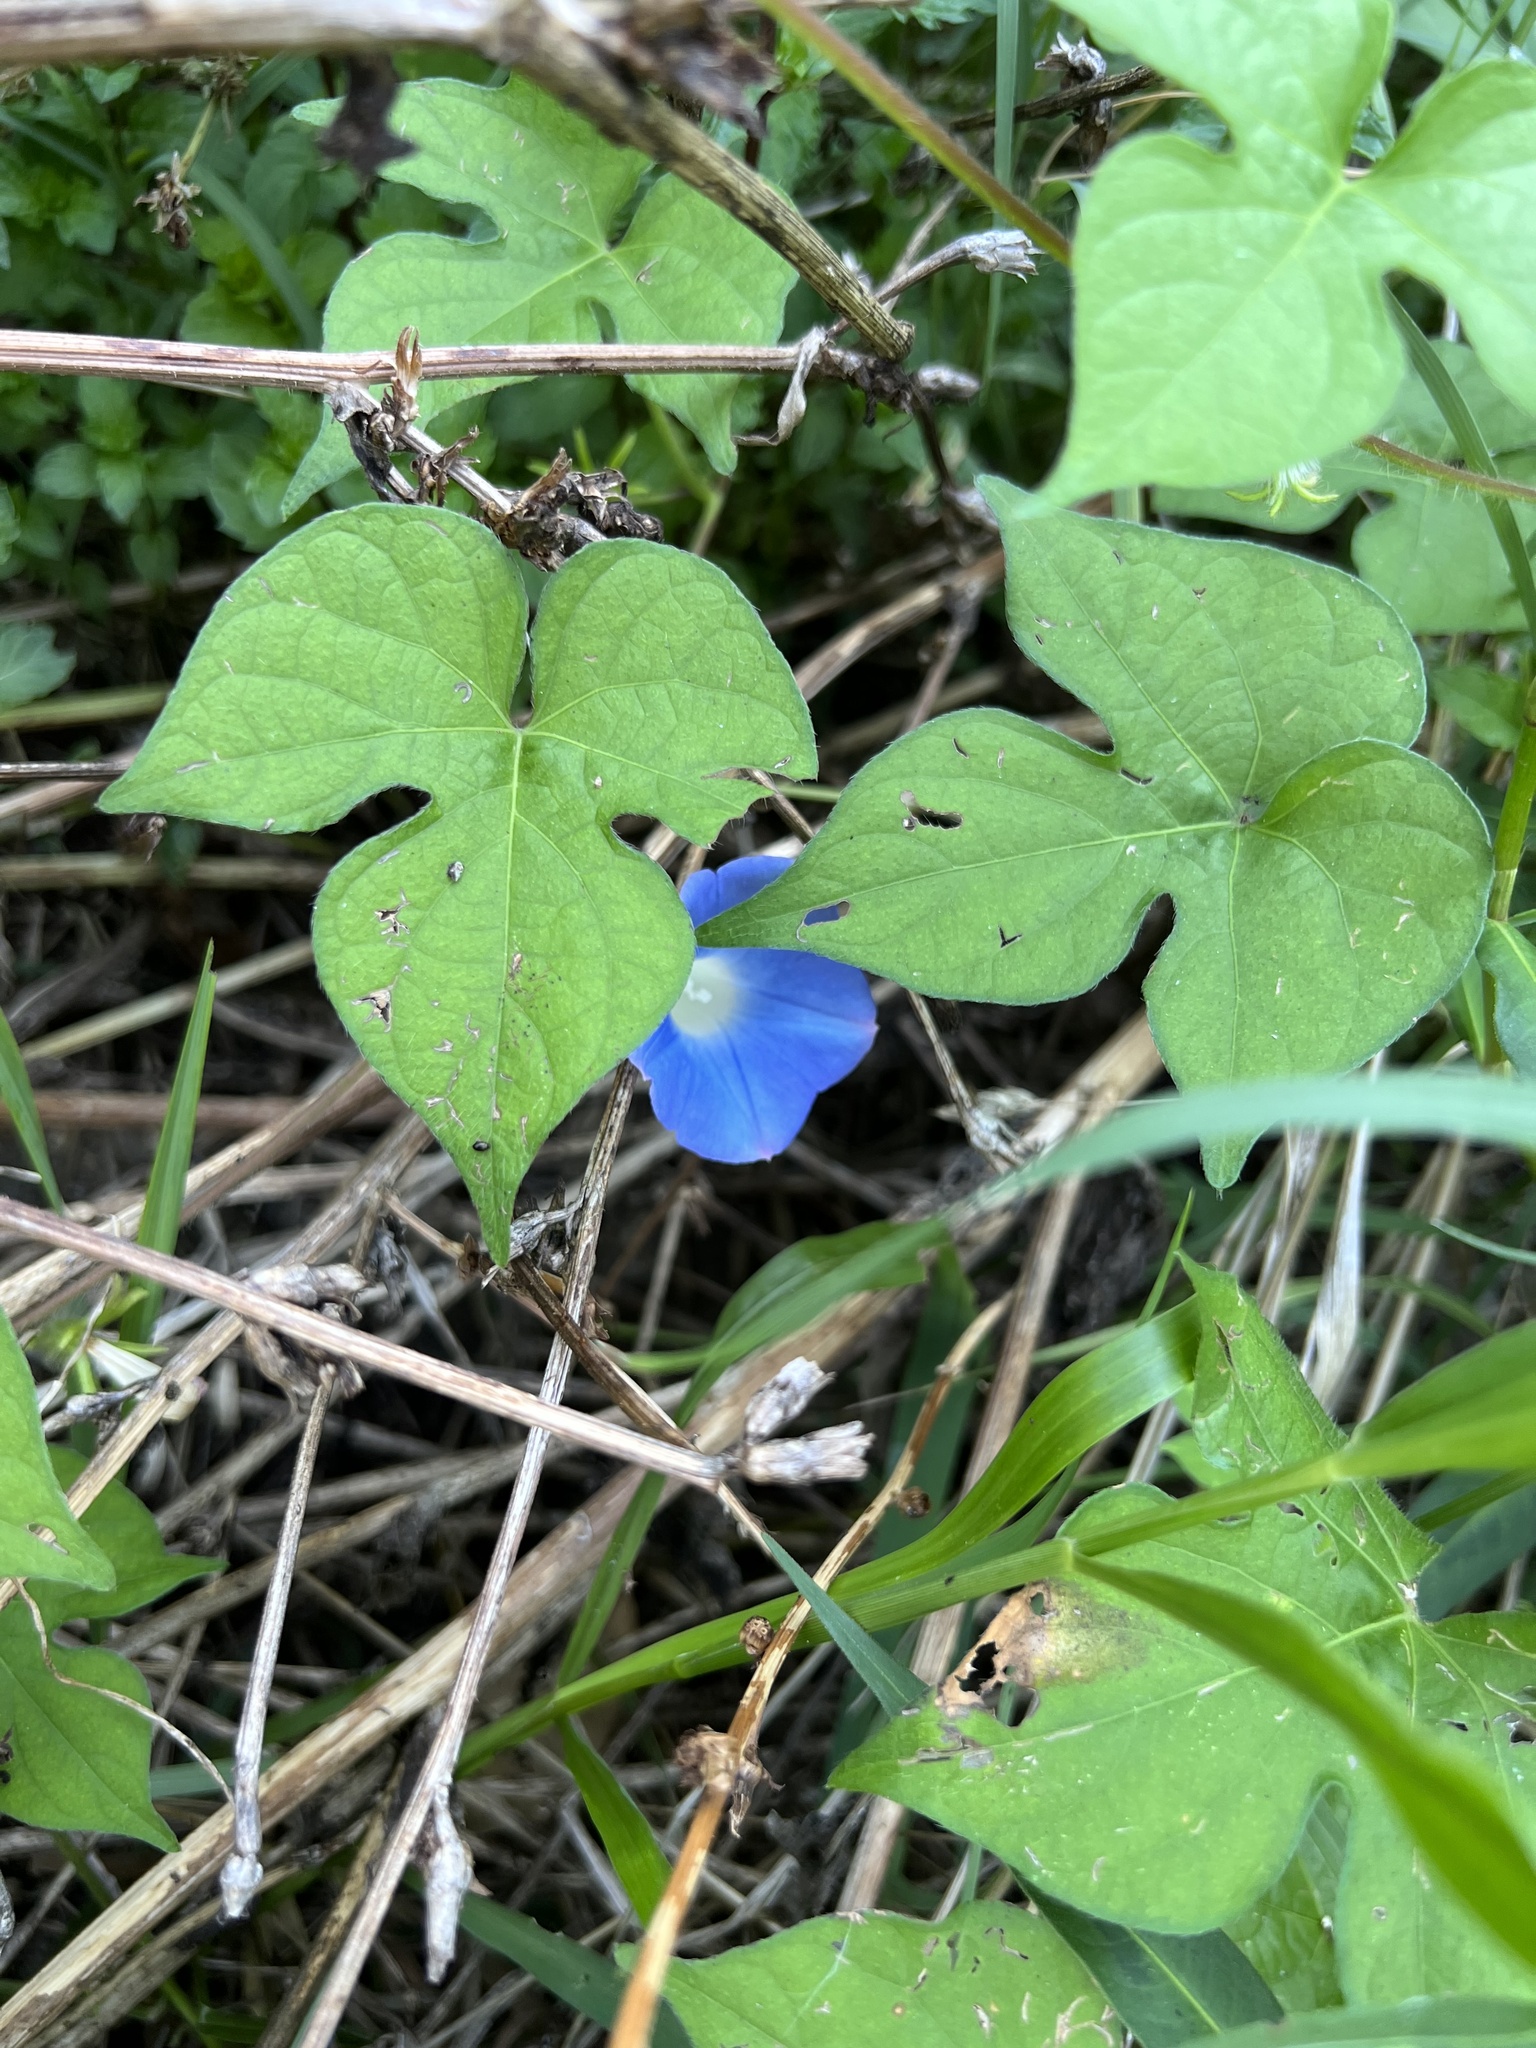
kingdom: Plantae
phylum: Tracheophyta
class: Magnoliopsida
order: Solanales
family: Convolvulaceae
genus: Ipomoea
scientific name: Ipomoea hederacea
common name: Ivy-leaved morning-glory
